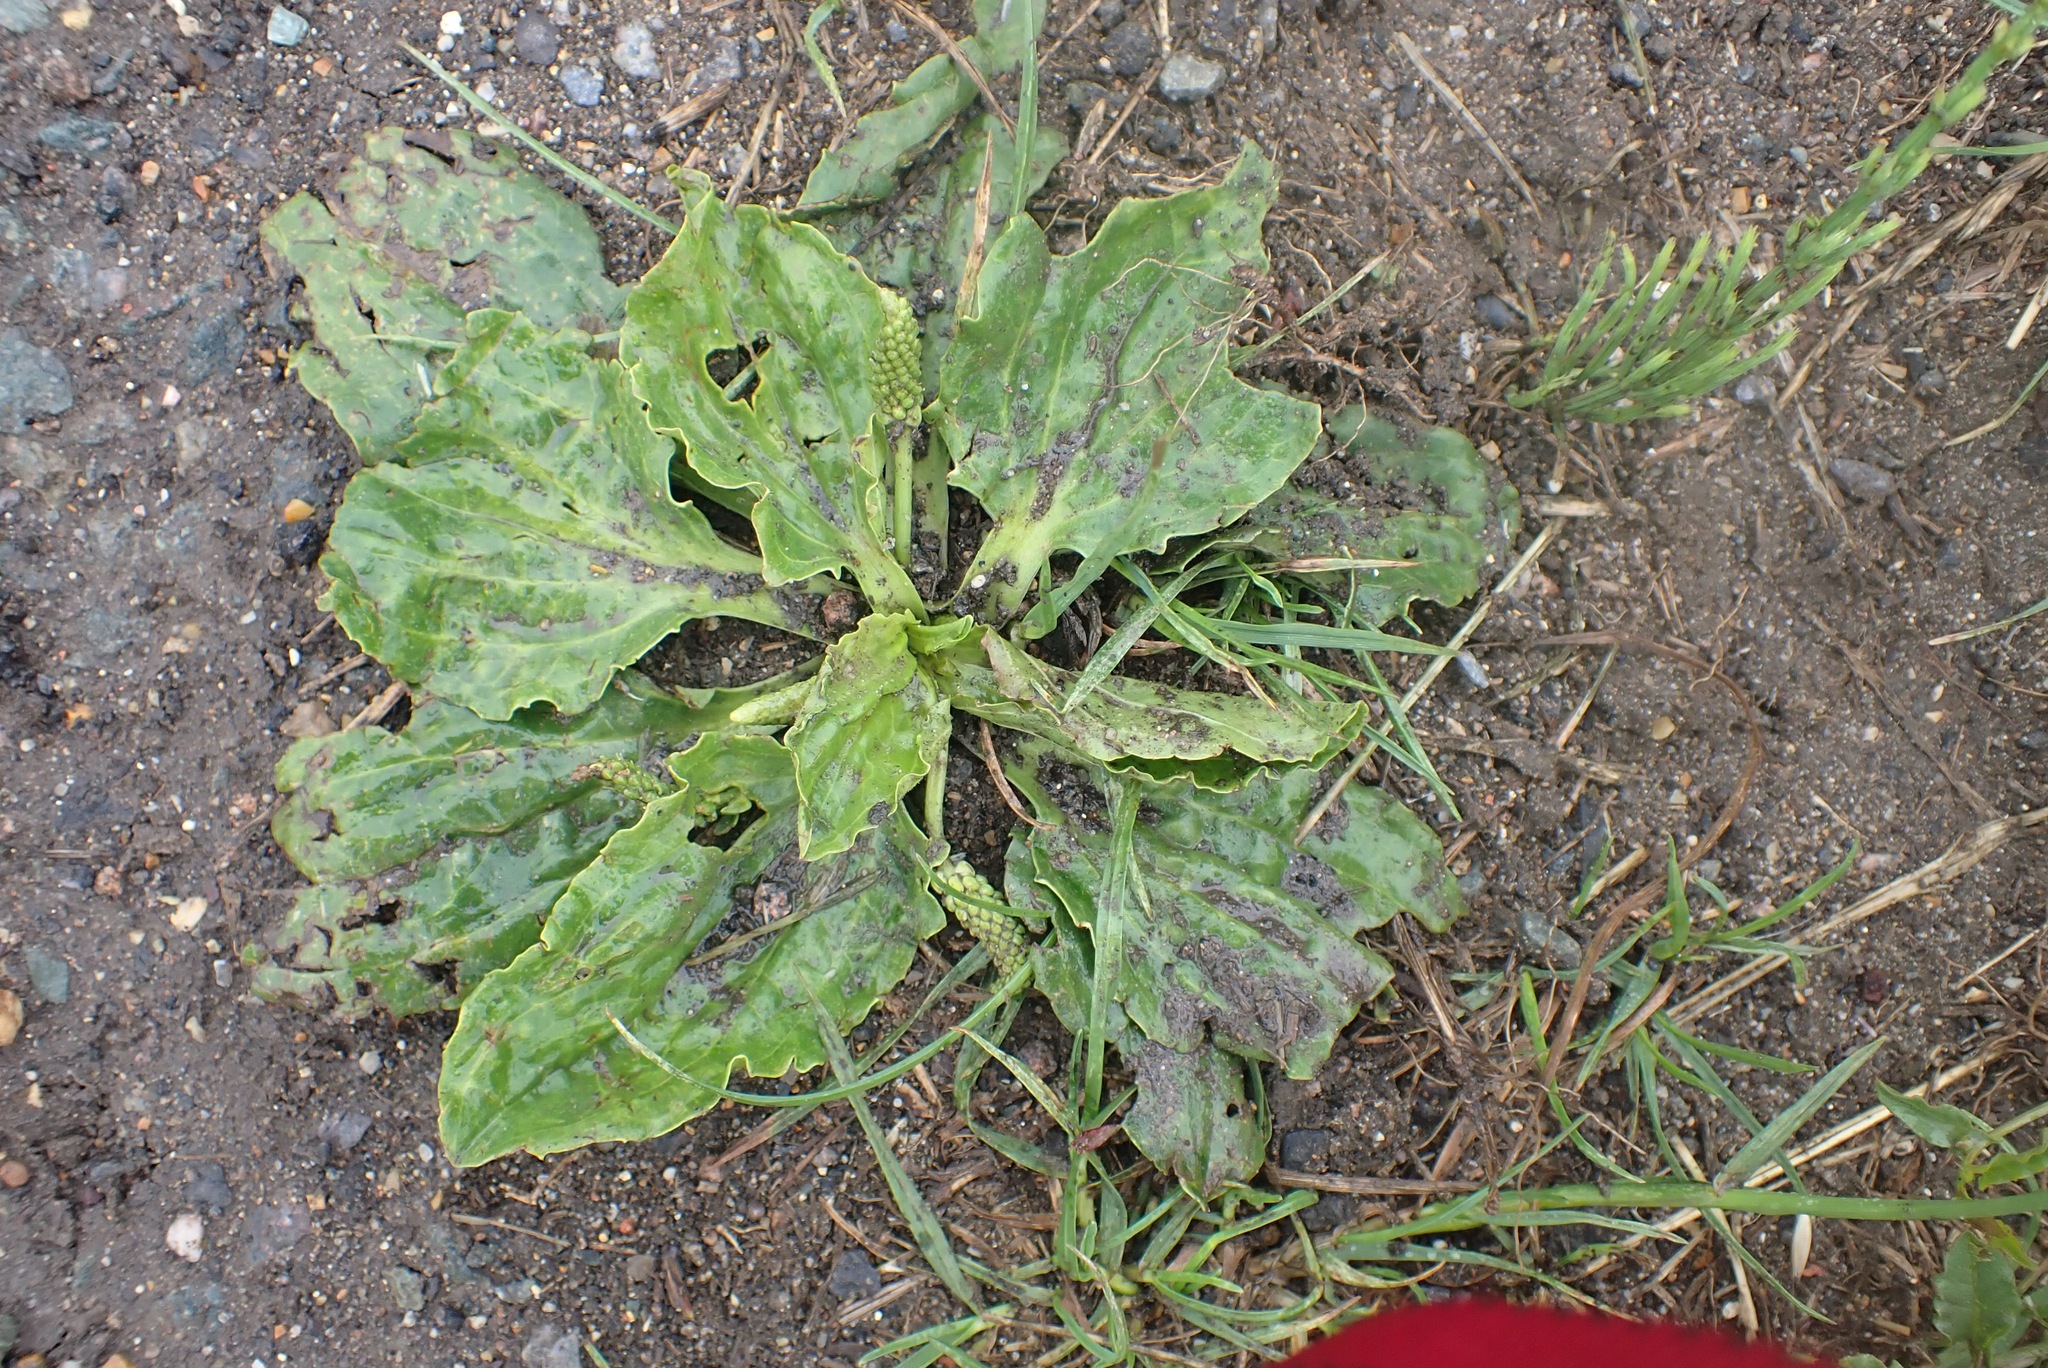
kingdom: Plantae
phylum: Tracheophyta
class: Magnoliopsida
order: Lamiales
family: Plantaginaceae
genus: Plantago
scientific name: Plantago major
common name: Common plantain
